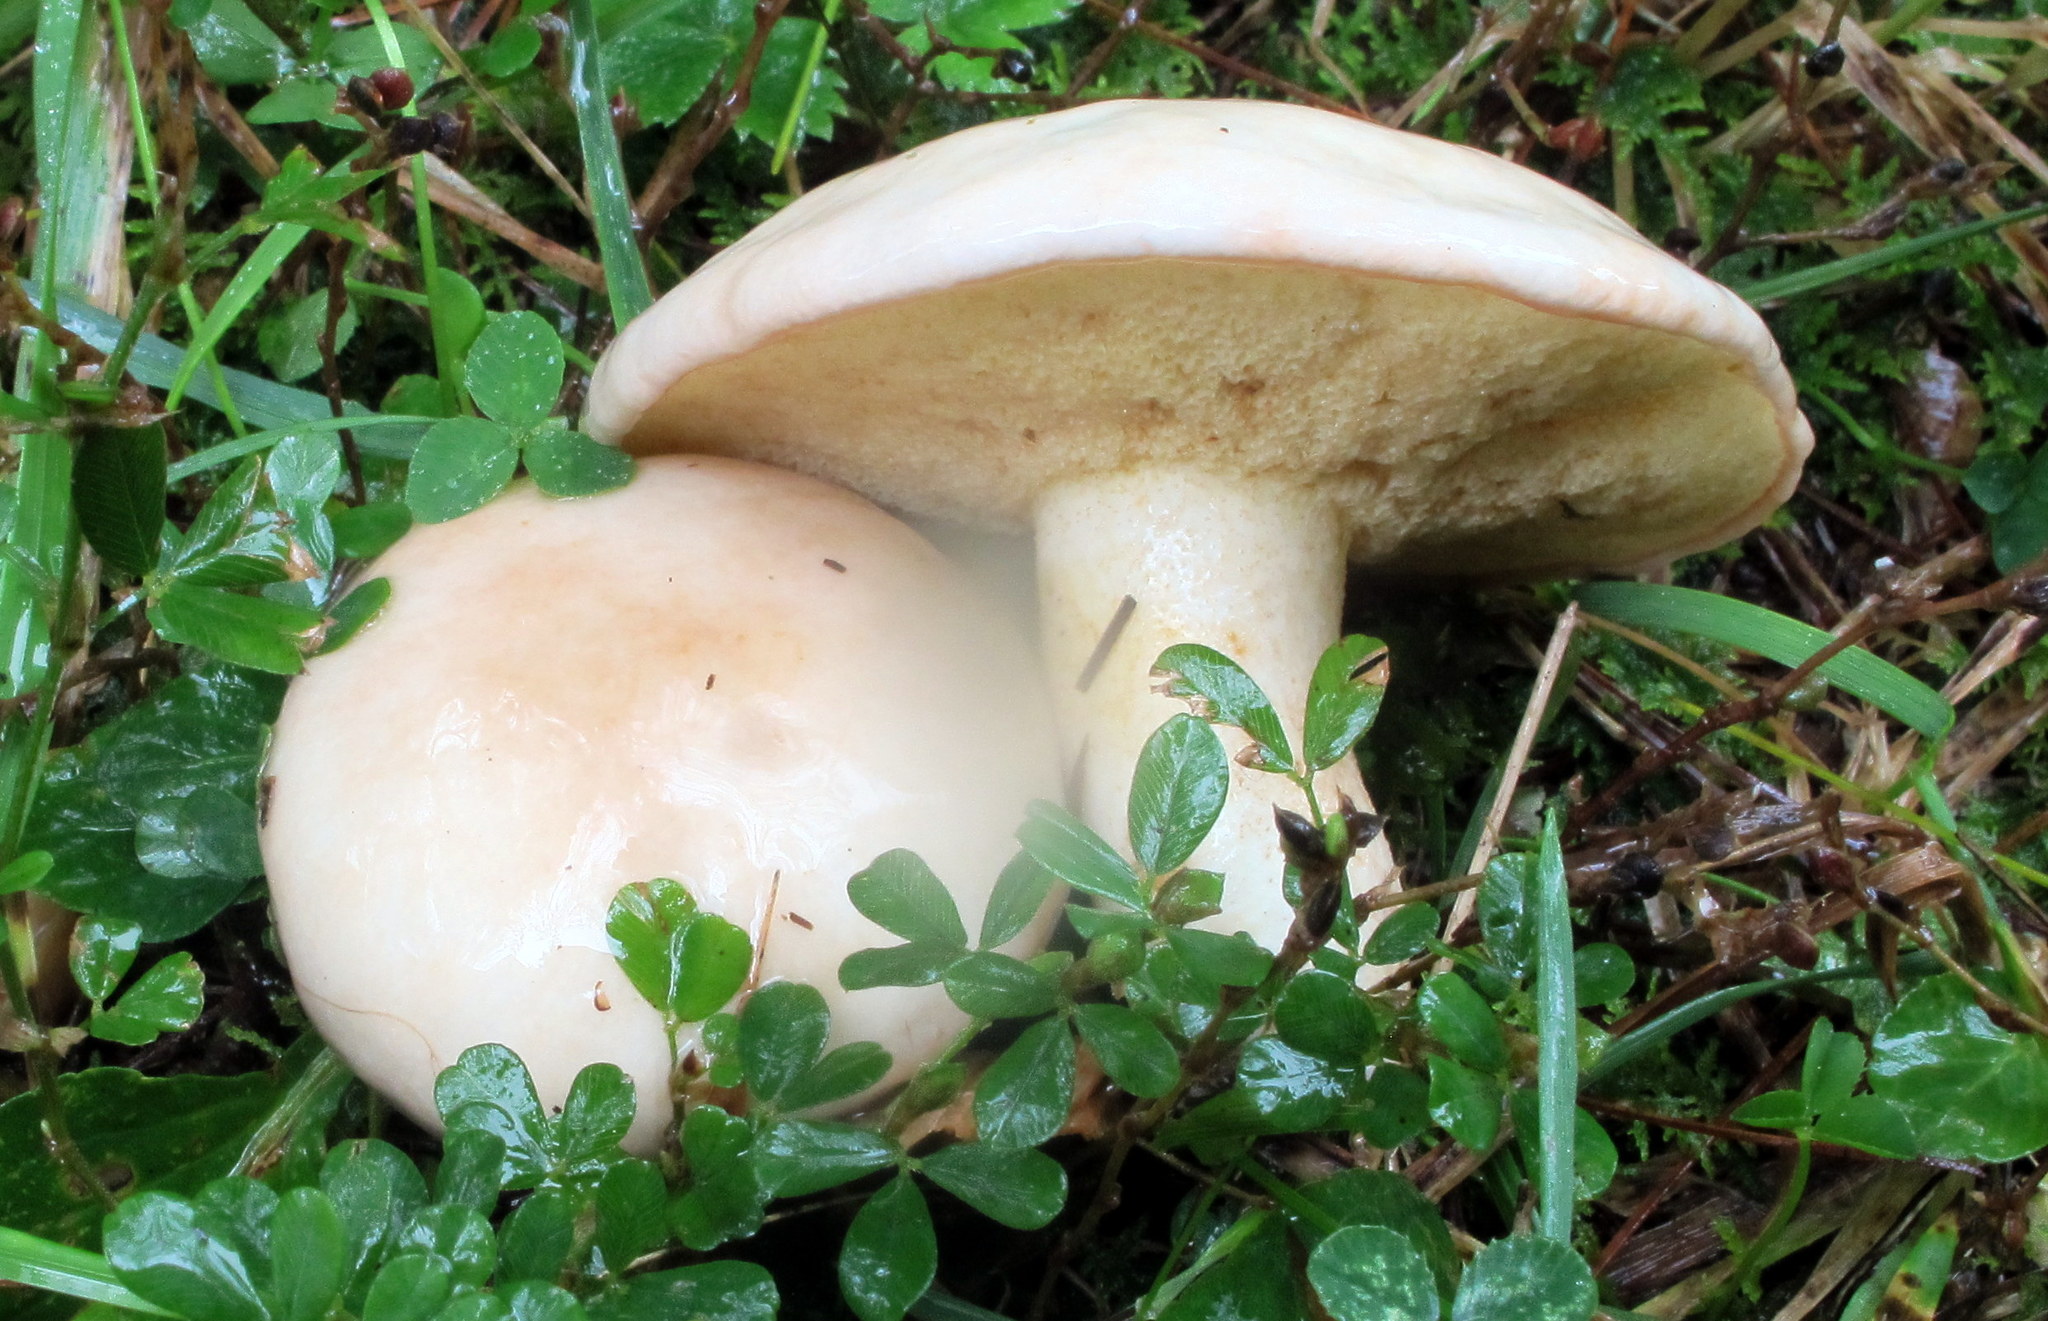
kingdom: Fungi
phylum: Basidiomycota
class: Agaricomycetes
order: Boletales
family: Suillaceae
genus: Suillus
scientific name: Suillus placidus
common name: Slippery white bolete
